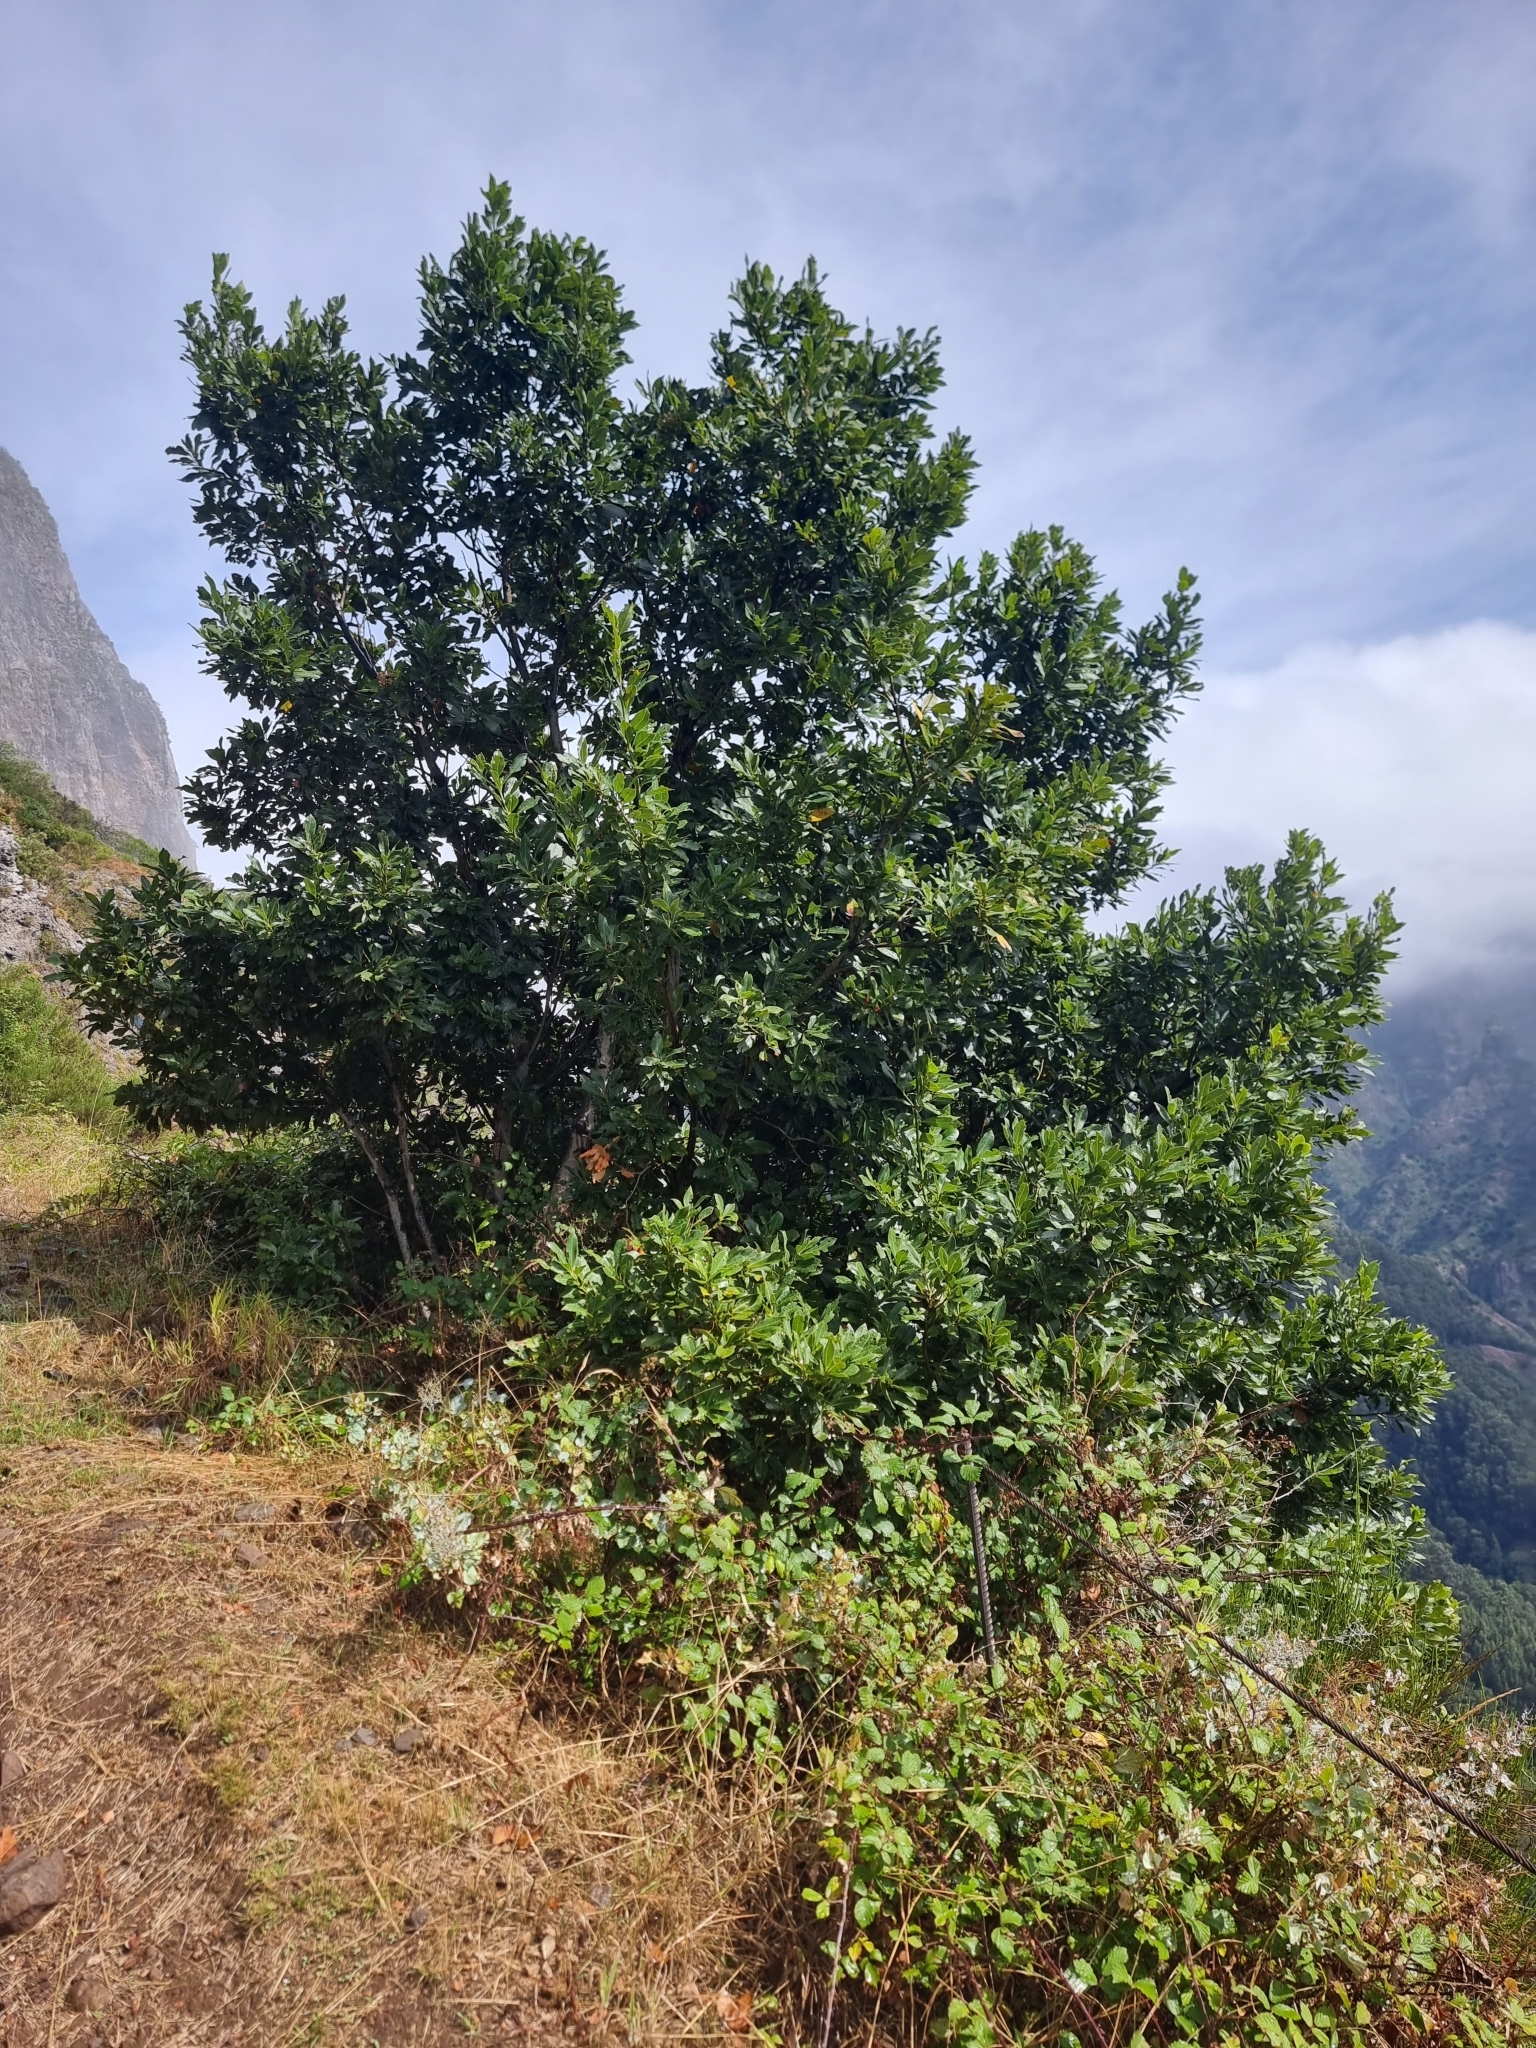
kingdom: Plantae
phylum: Tracheophyta
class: Magnoliopsida
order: Laurales
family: Lauraceae
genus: Laurus
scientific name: Laurus novocanariensis
